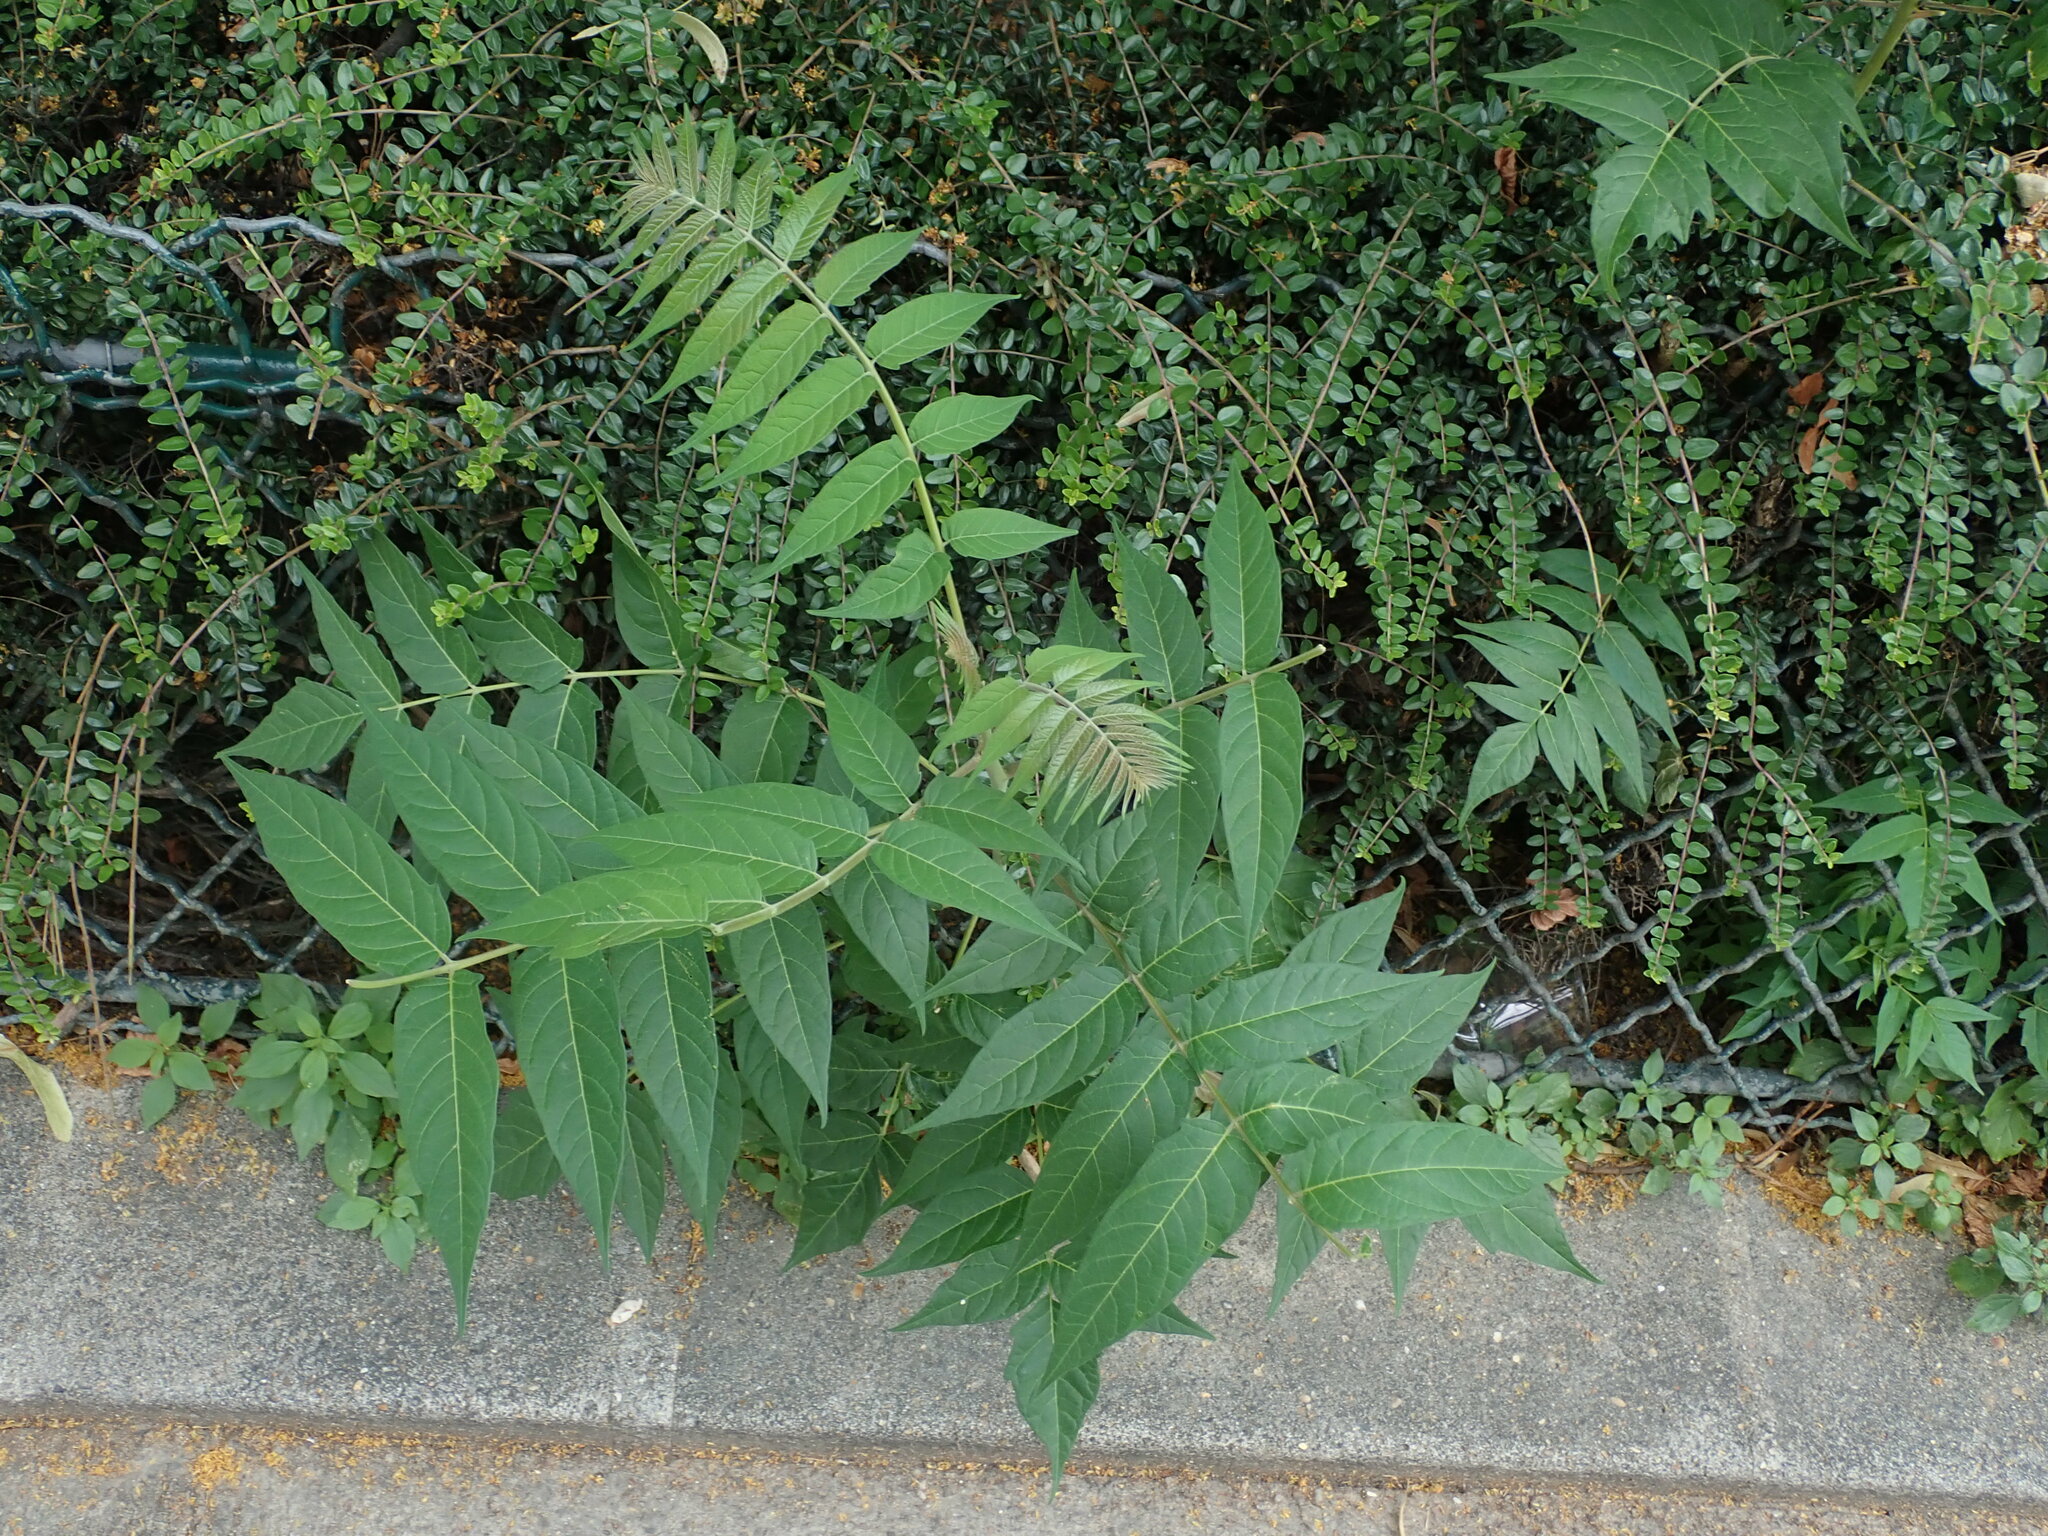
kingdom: Plantae
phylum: Tracheophyta
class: Magnoliopsida
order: Sapindales
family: Simaroubaceae
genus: Ailanthus
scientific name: Ailanthus altissima
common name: Tree-of-heaven
